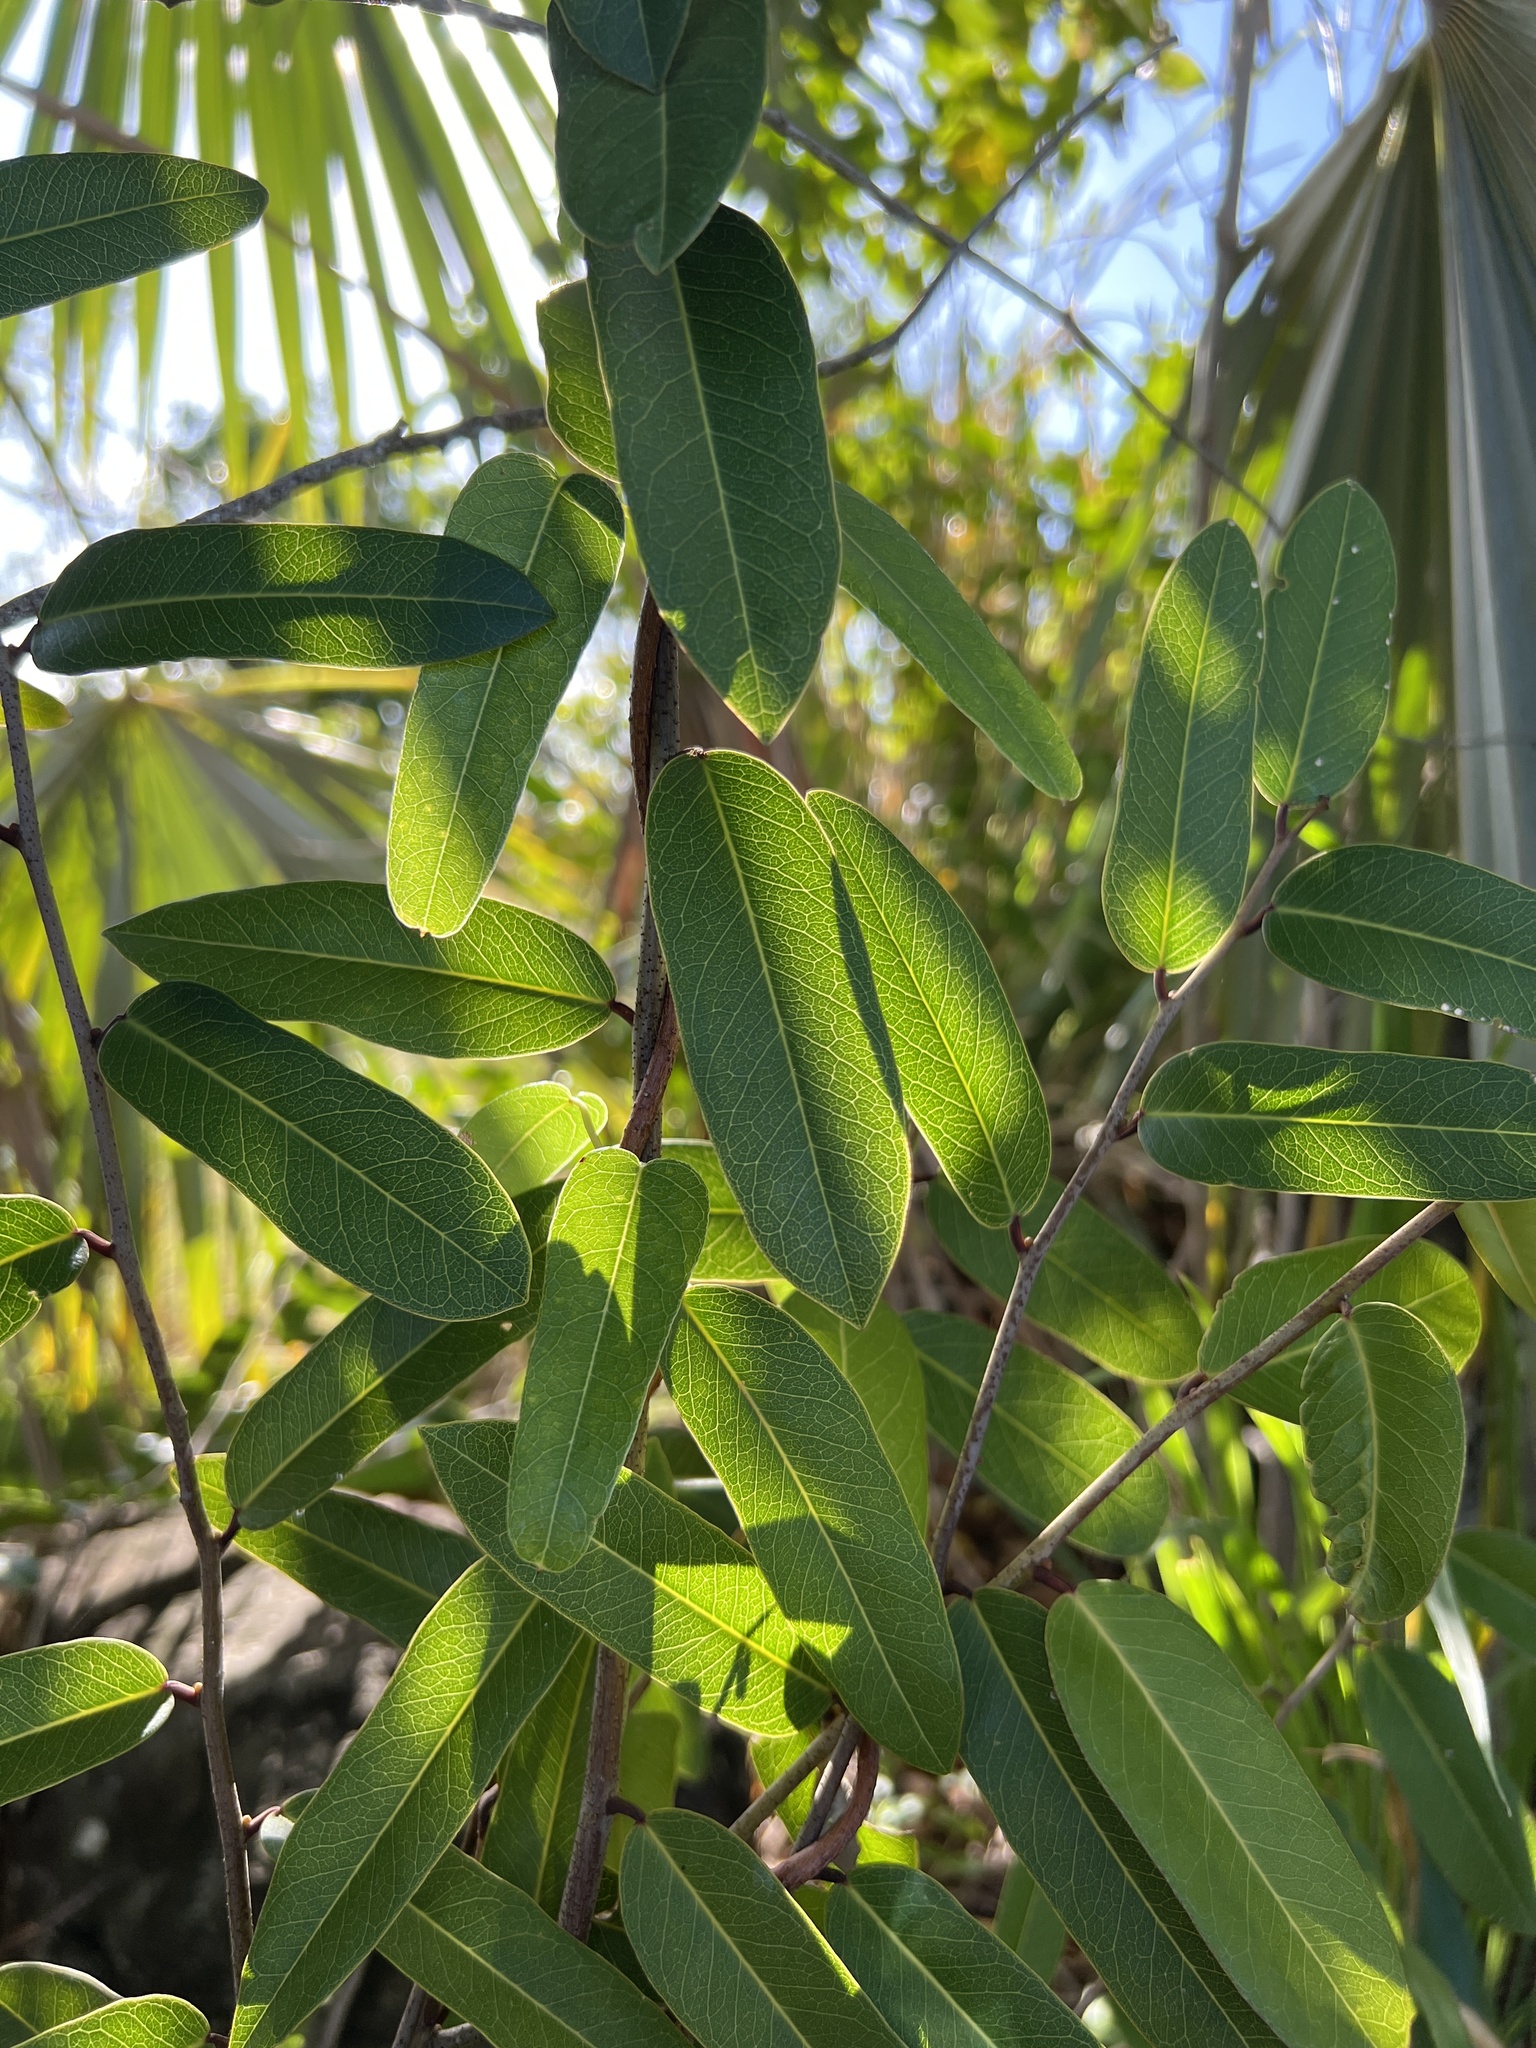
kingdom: Plantae
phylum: Tracheophyta
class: Magnoliopsida
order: Brassicales
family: Capparaceae
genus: Cynophalla
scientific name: Cynophalla flexuosa
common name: Capertree
